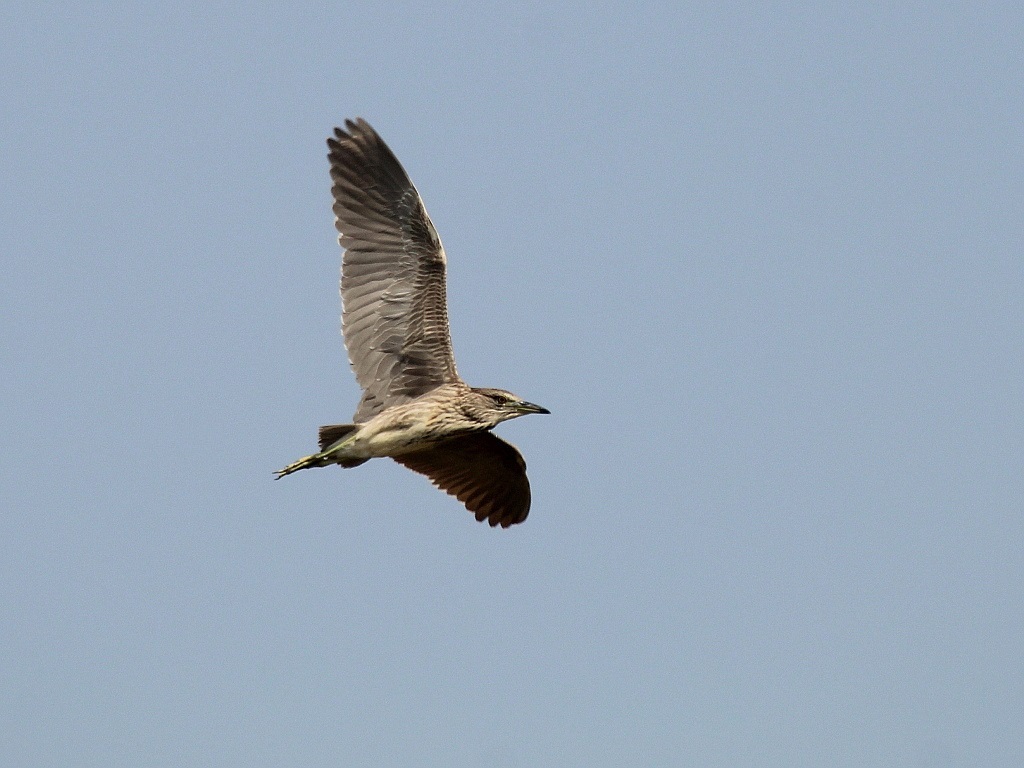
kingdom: Animalia
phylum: Chordata
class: Aves
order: Pelecaniformes
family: Ardeidae
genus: Nycticorax
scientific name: Nycticorax nycticorax
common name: Black-crowned night heron
